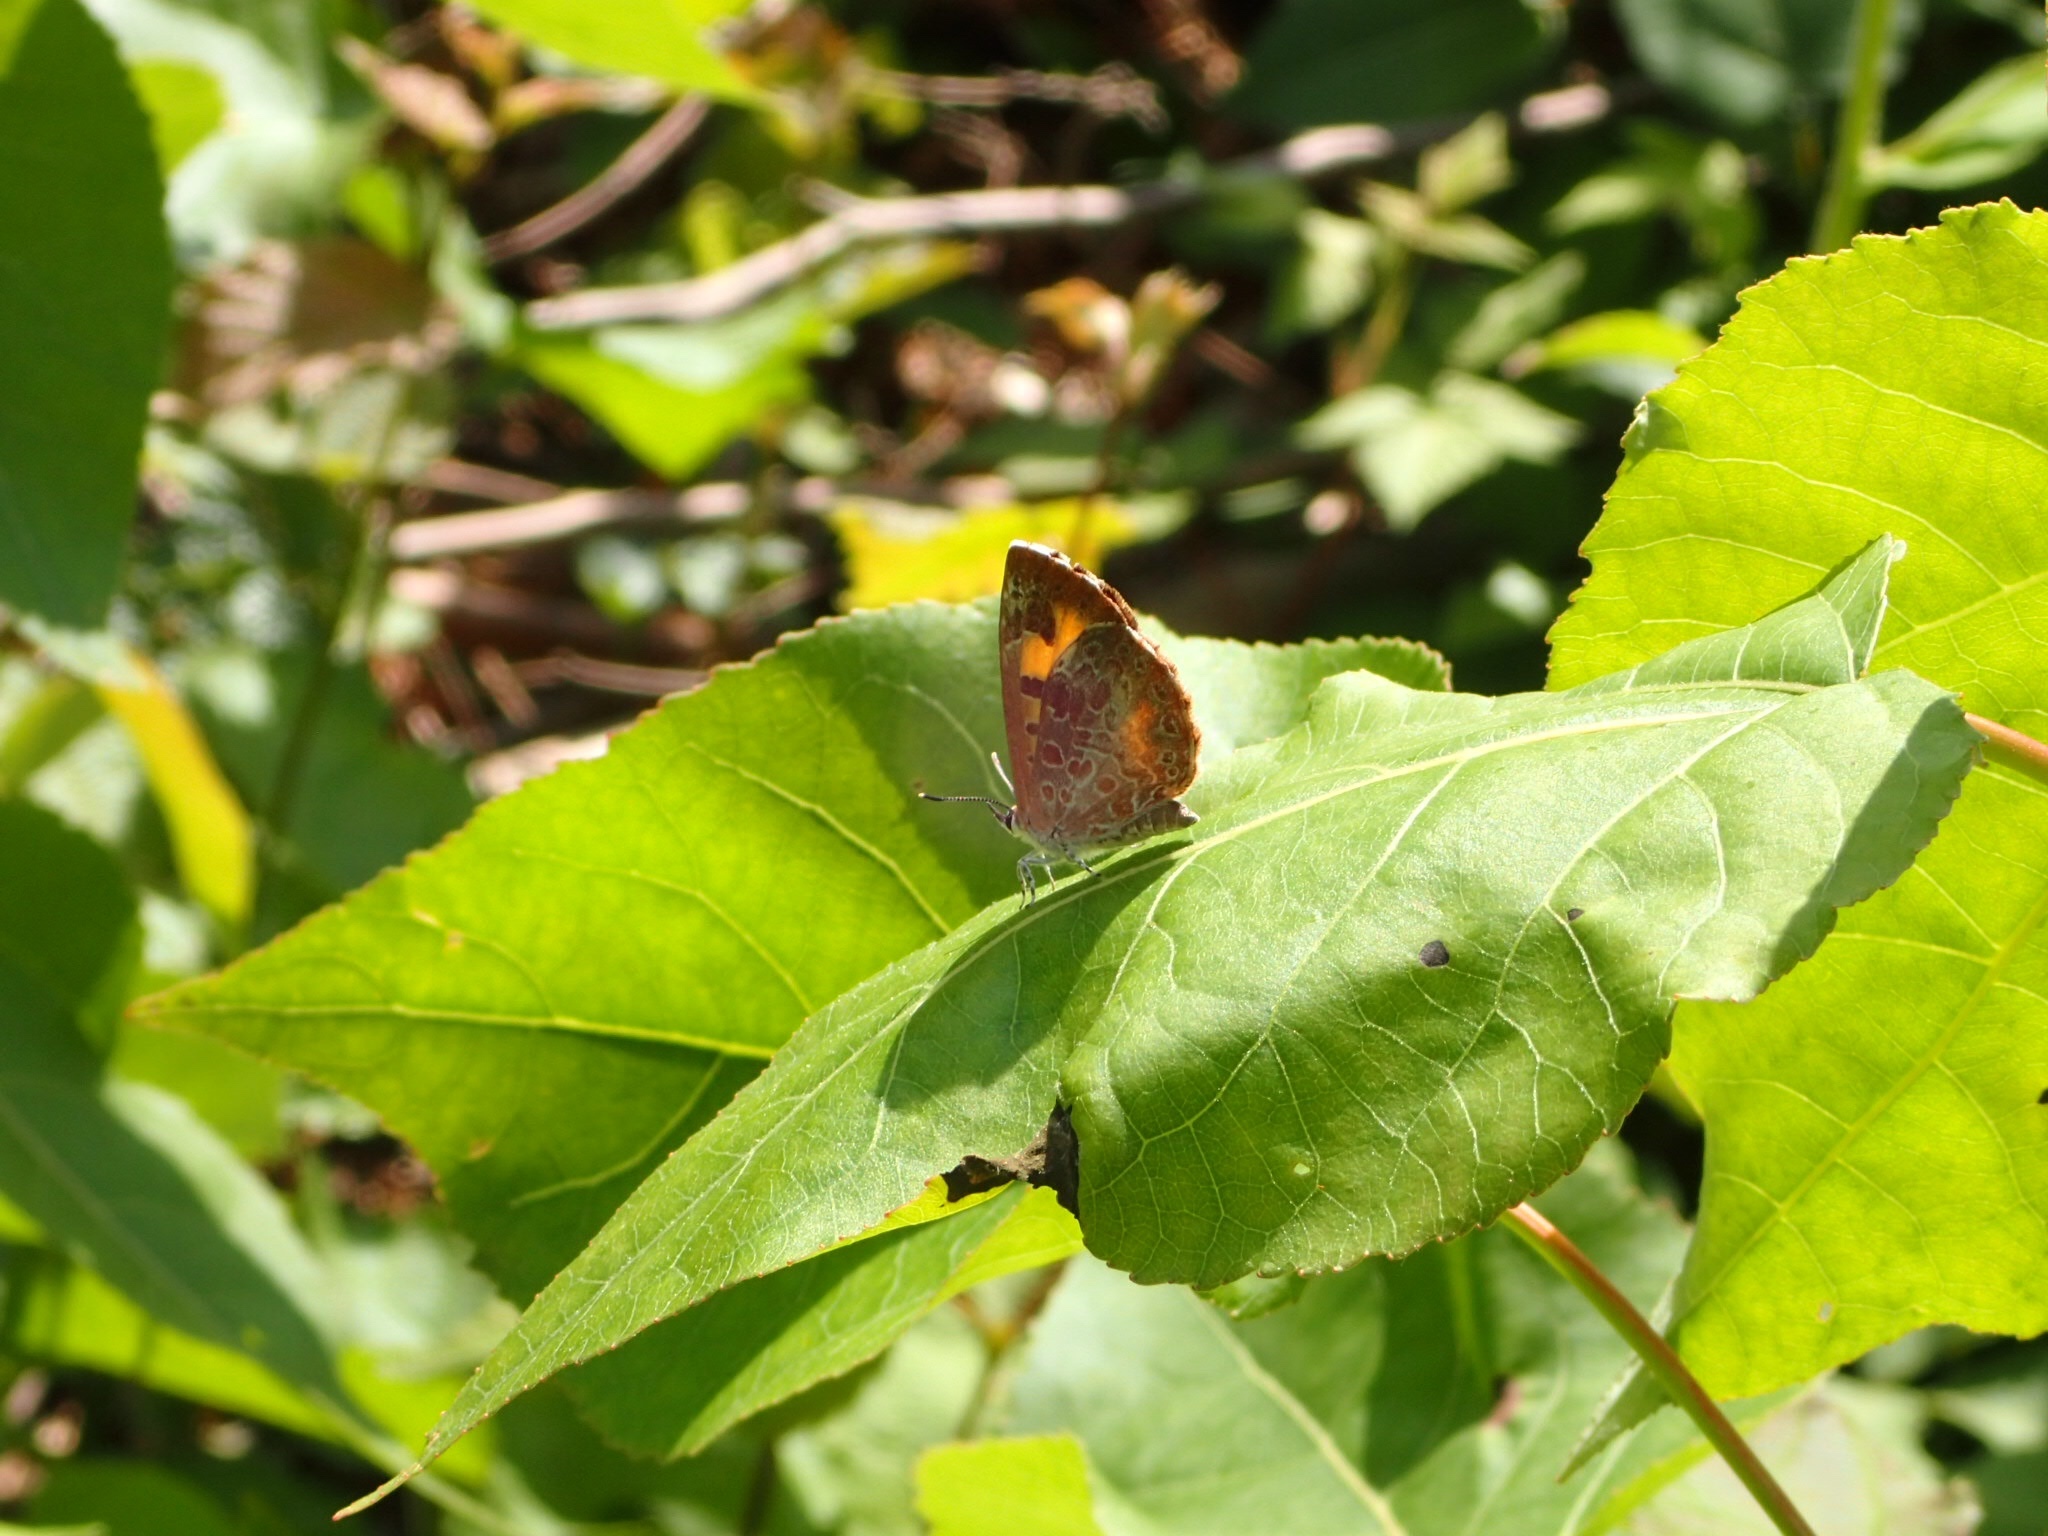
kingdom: Animalia
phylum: Arthropoda
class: Insecta
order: Lepidoptera
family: Lycaenidae
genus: Feniseca
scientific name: Feniseca tarquinius
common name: Harvester
